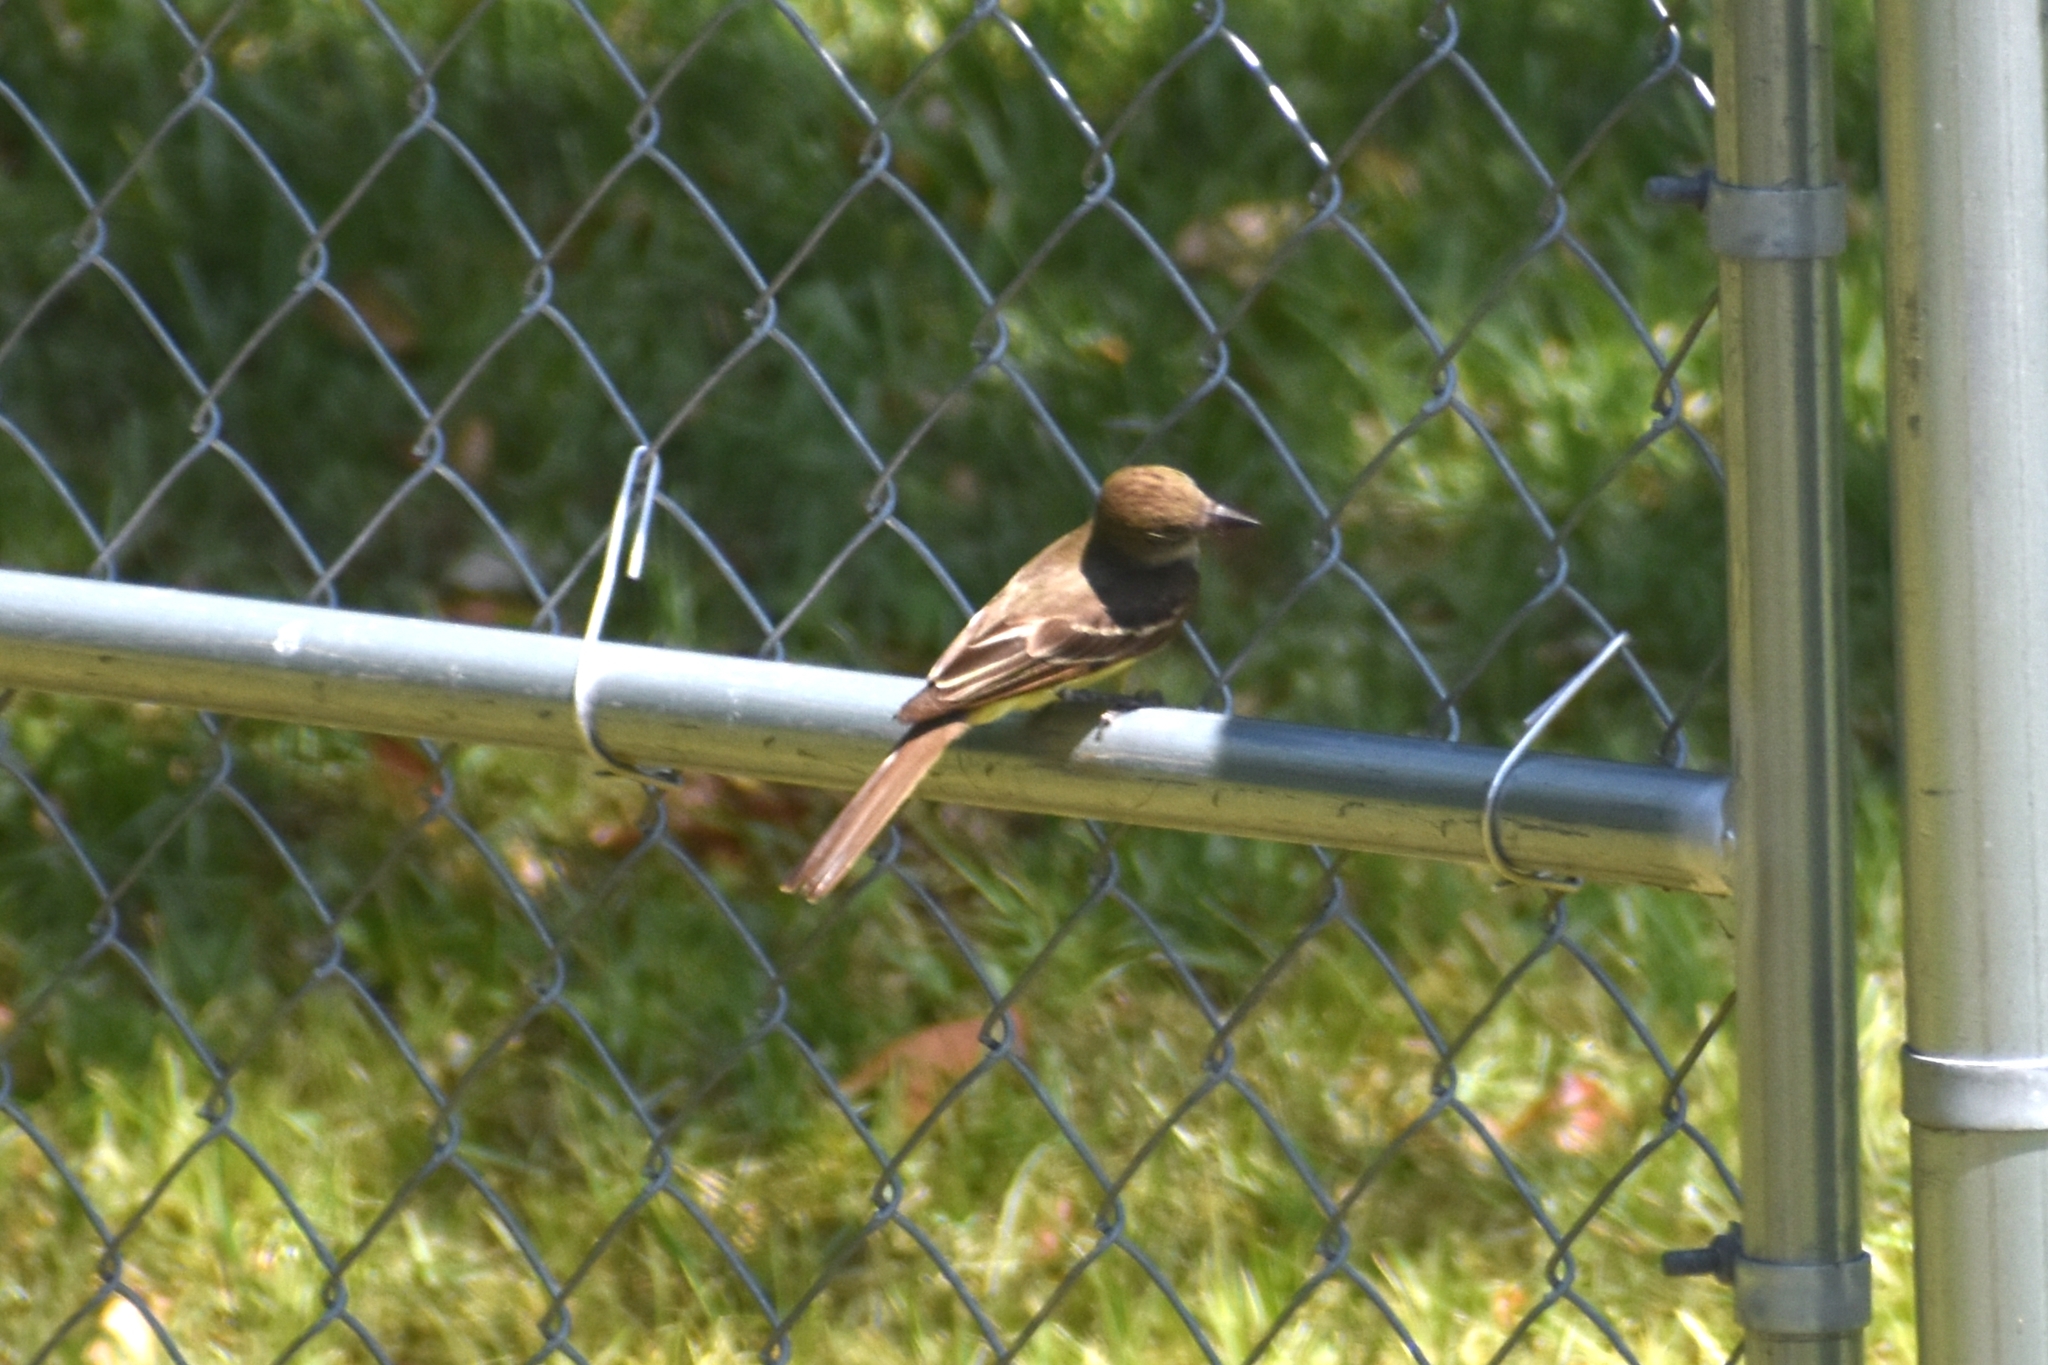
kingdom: Animalia
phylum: Chordata
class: Aves
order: Passeriformes
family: Tyrannidae
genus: Myiarchus
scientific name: Myiarchus crinitus
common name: Great crested flycatcher
